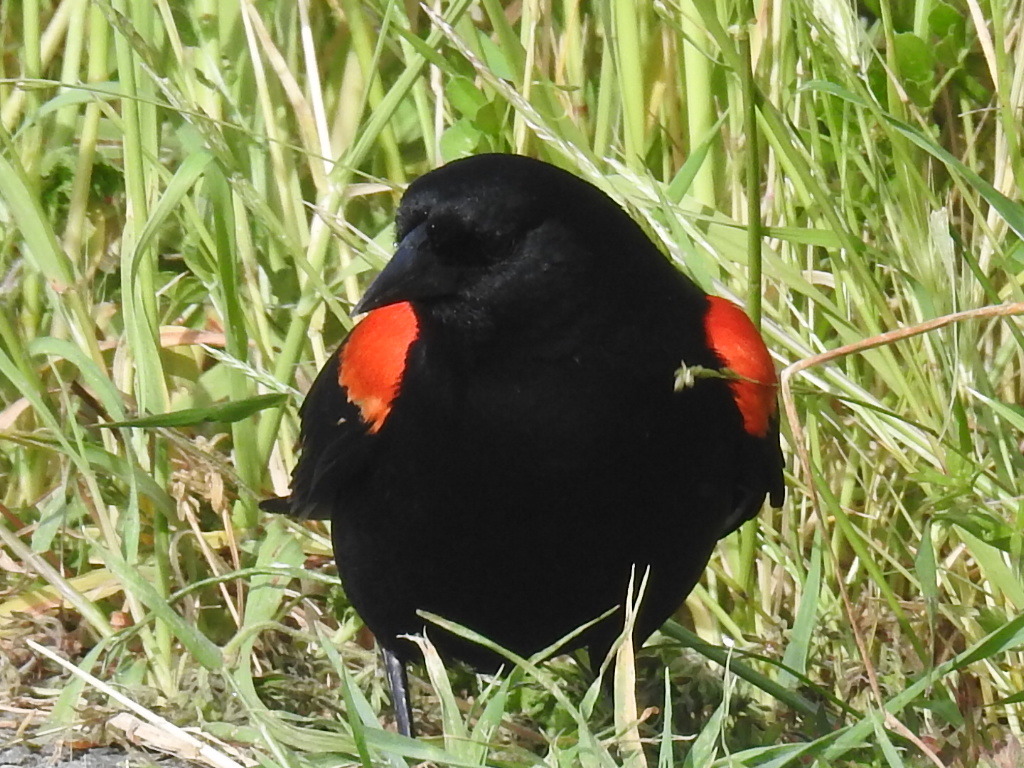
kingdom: Animalia
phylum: Chordata
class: Aves
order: Passeriformes
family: Icteridae
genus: Agelaius
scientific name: Agelaius phoeniceus
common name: Red-winged blackbird
